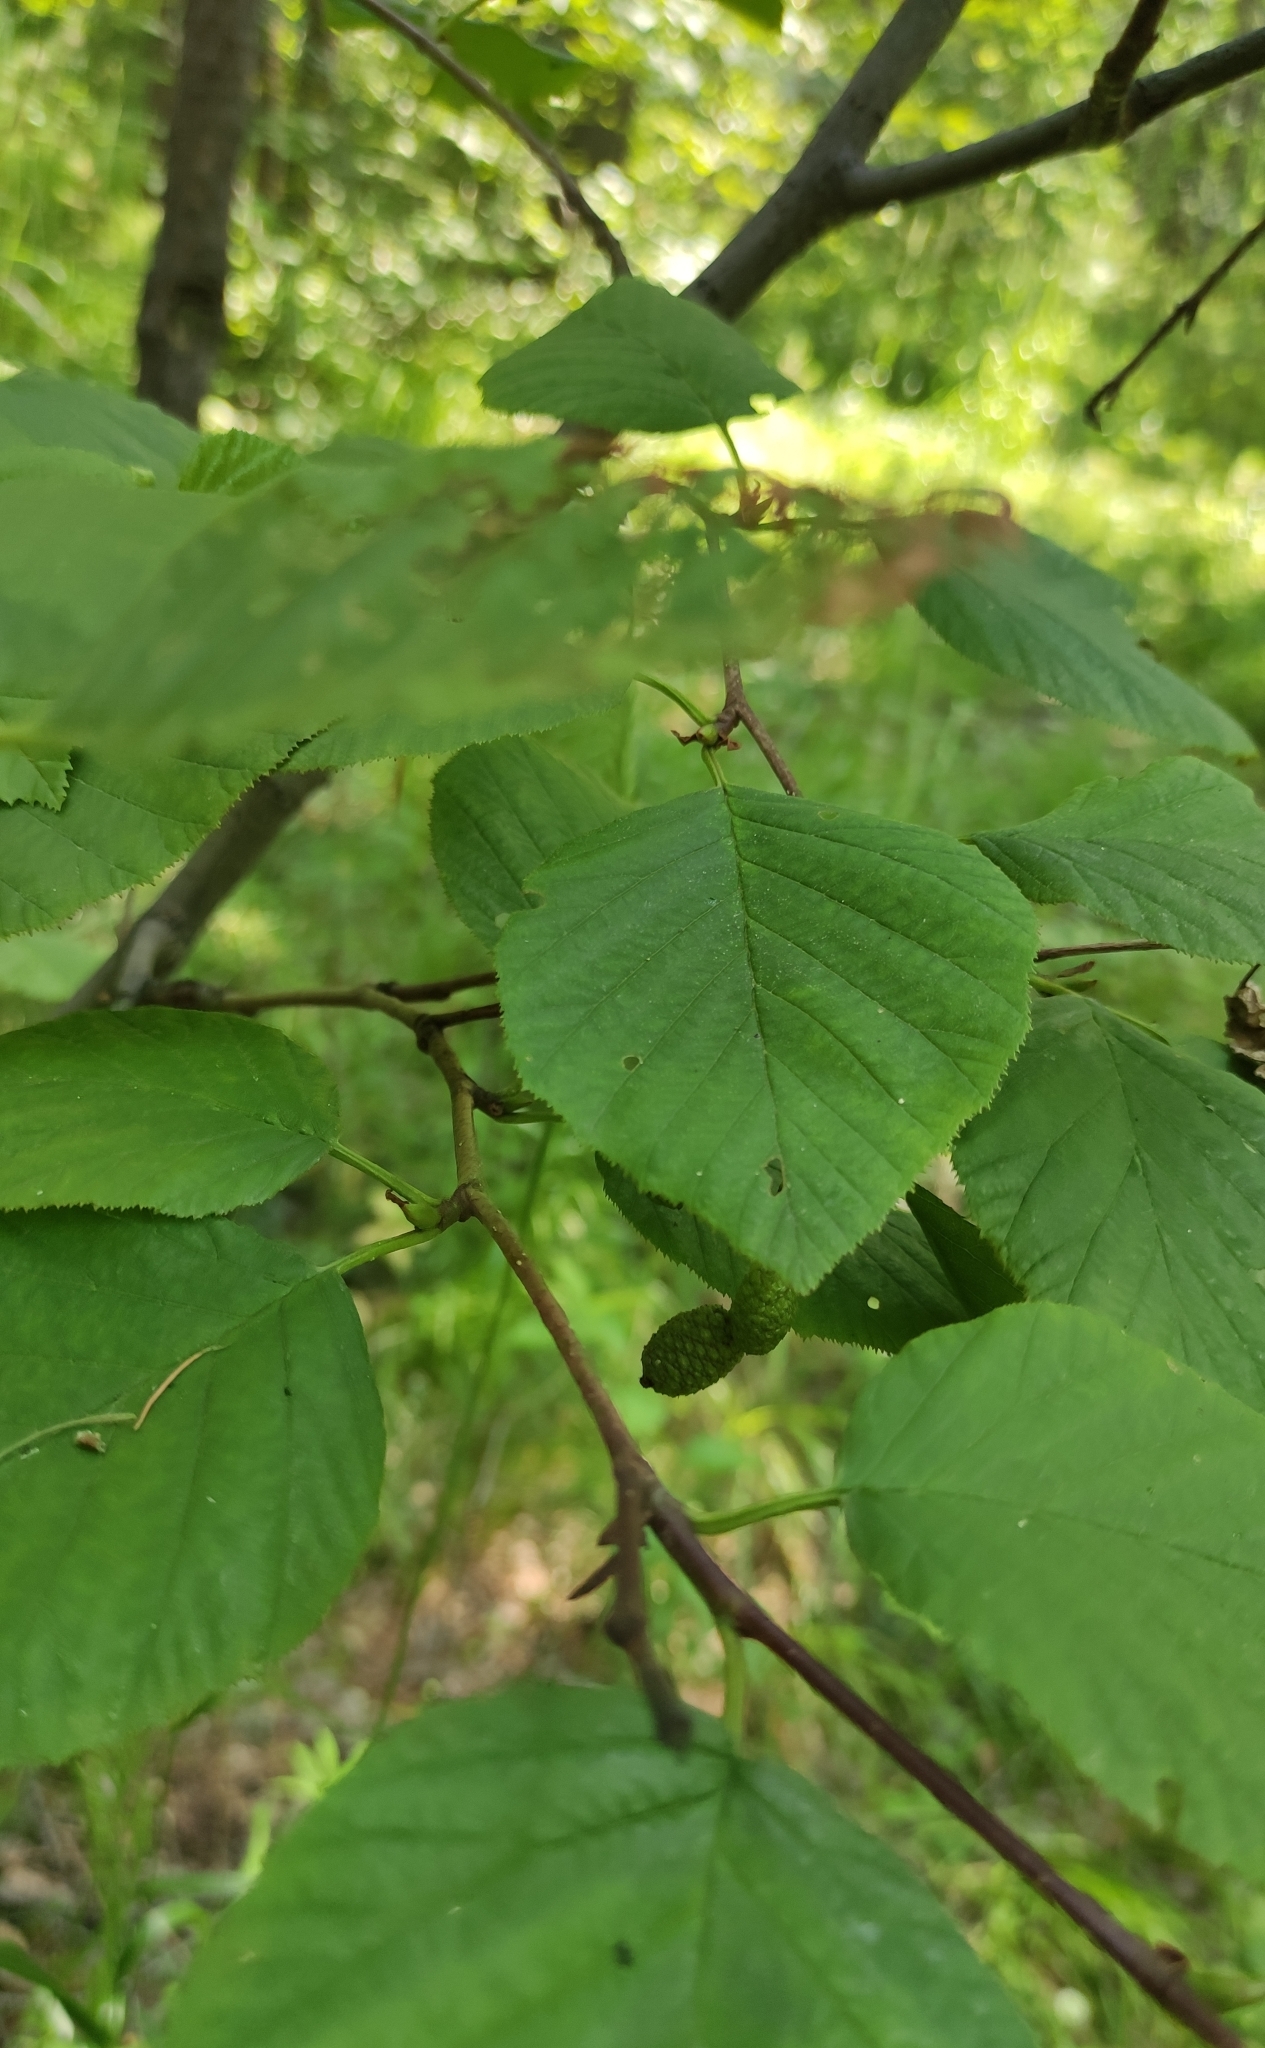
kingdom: Plantae
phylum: Tracheophyta
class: Magnoliopsida
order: Fagales
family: Betulaceae
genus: Alnus
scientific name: Alnus alnobetula
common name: Green alder
